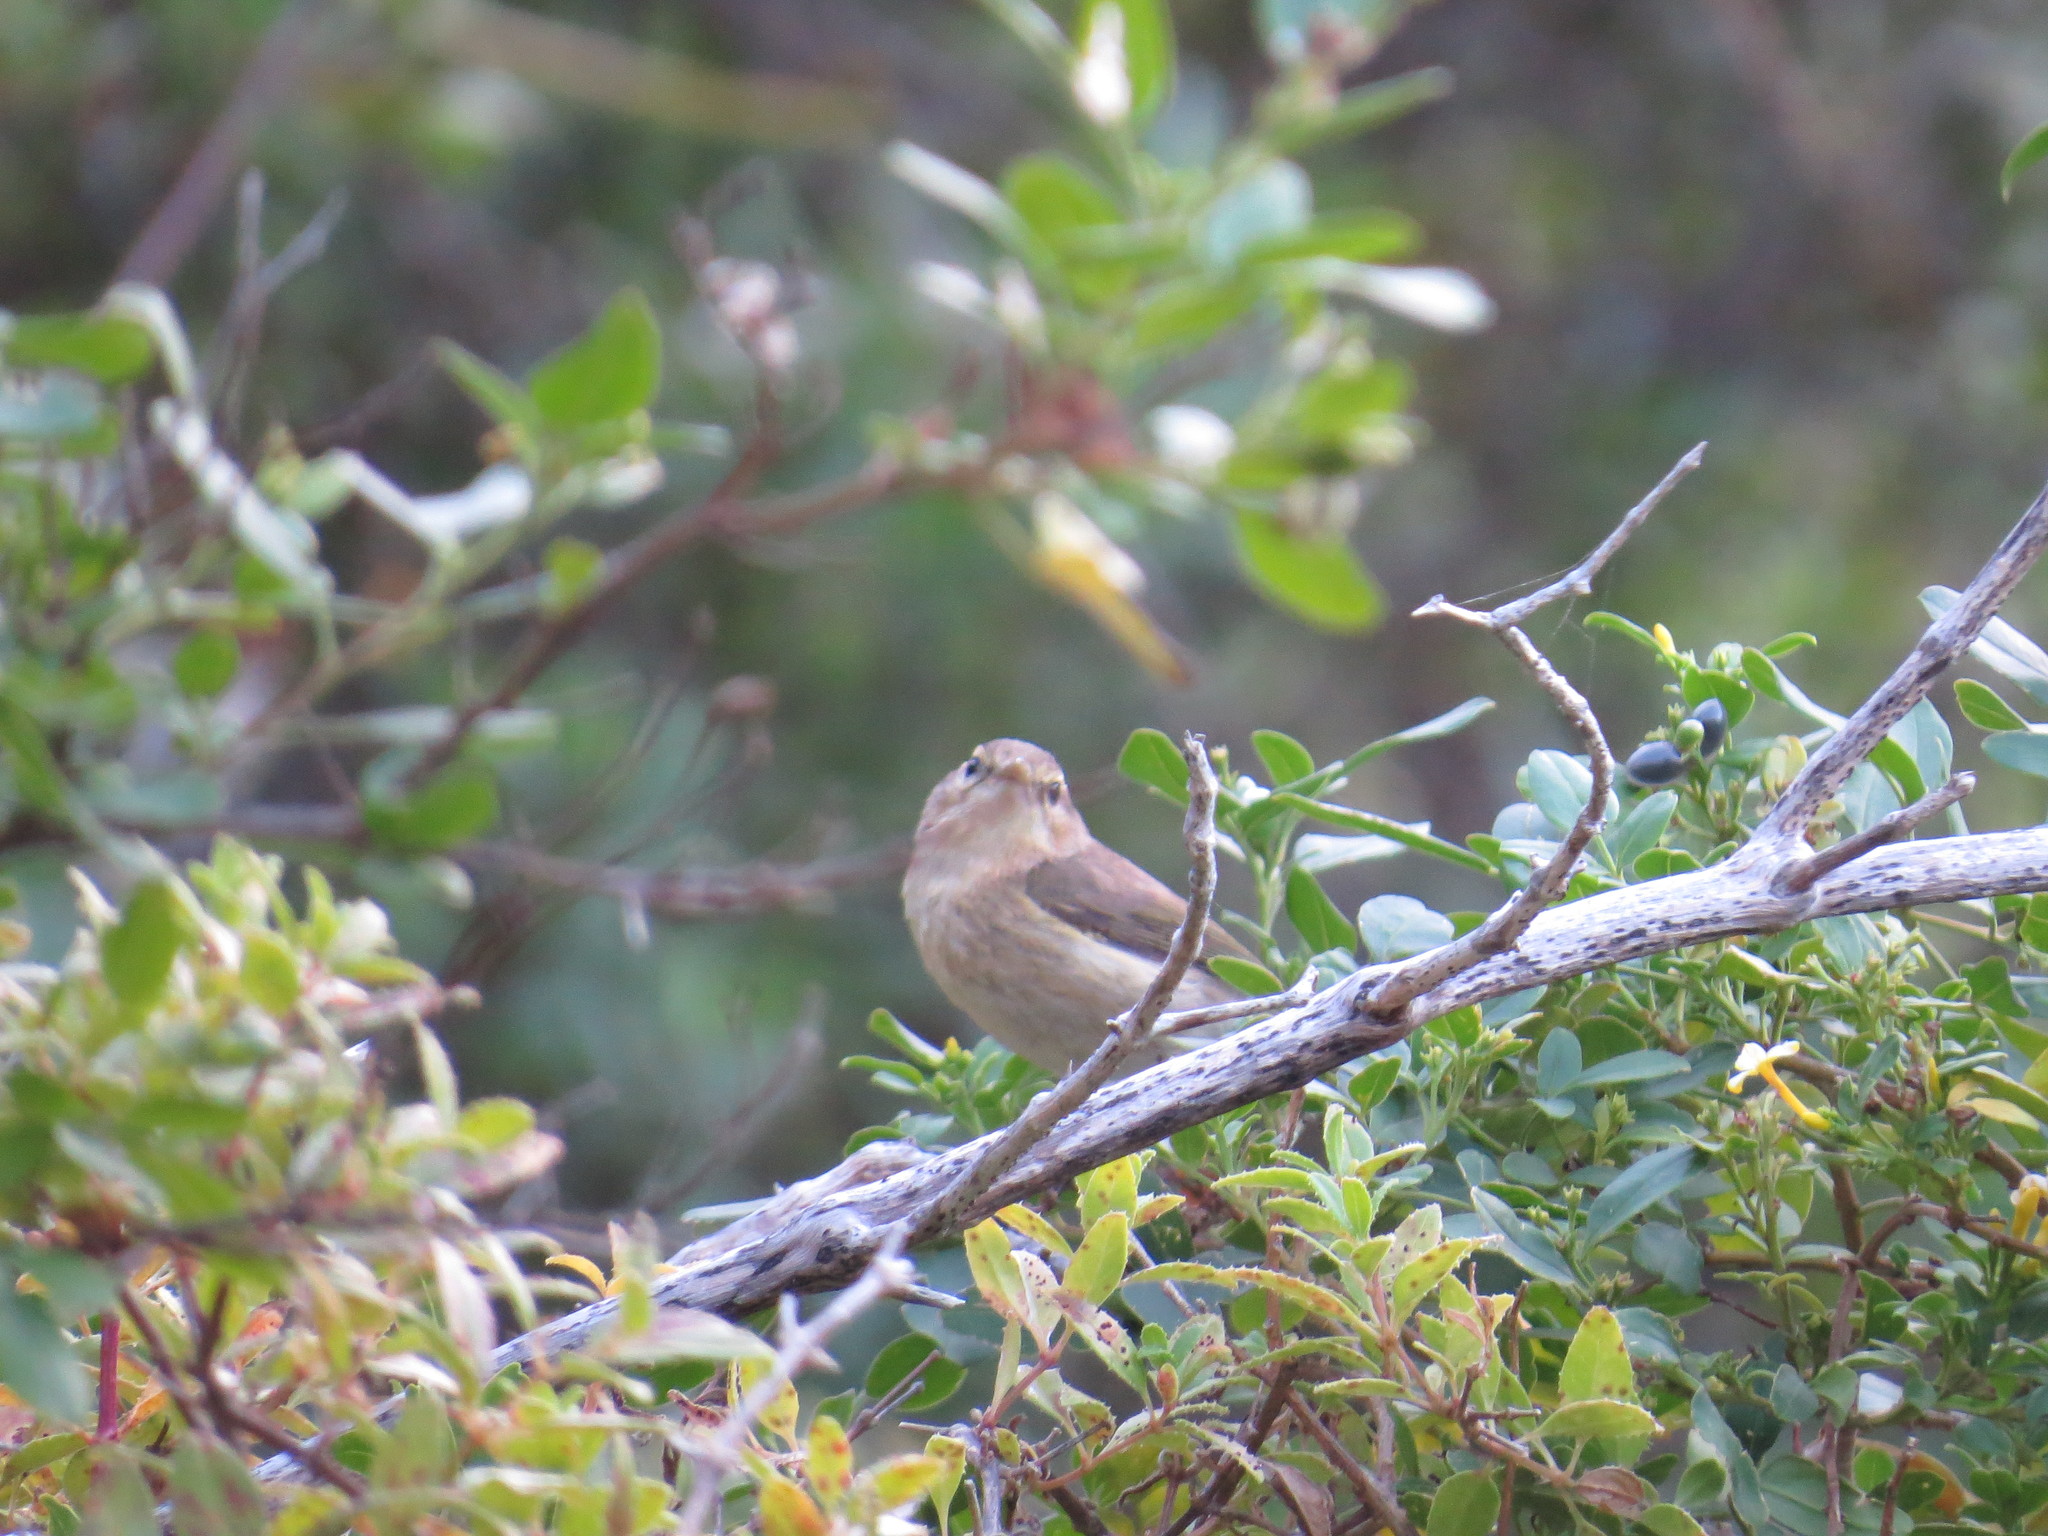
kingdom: Animalia
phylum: Chordata
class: Aves
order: Passeriformes
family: Phylloscopidae
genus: Phylloscopus
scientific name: Phylloscopus canariensis
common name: Canary islands chiffchaff
